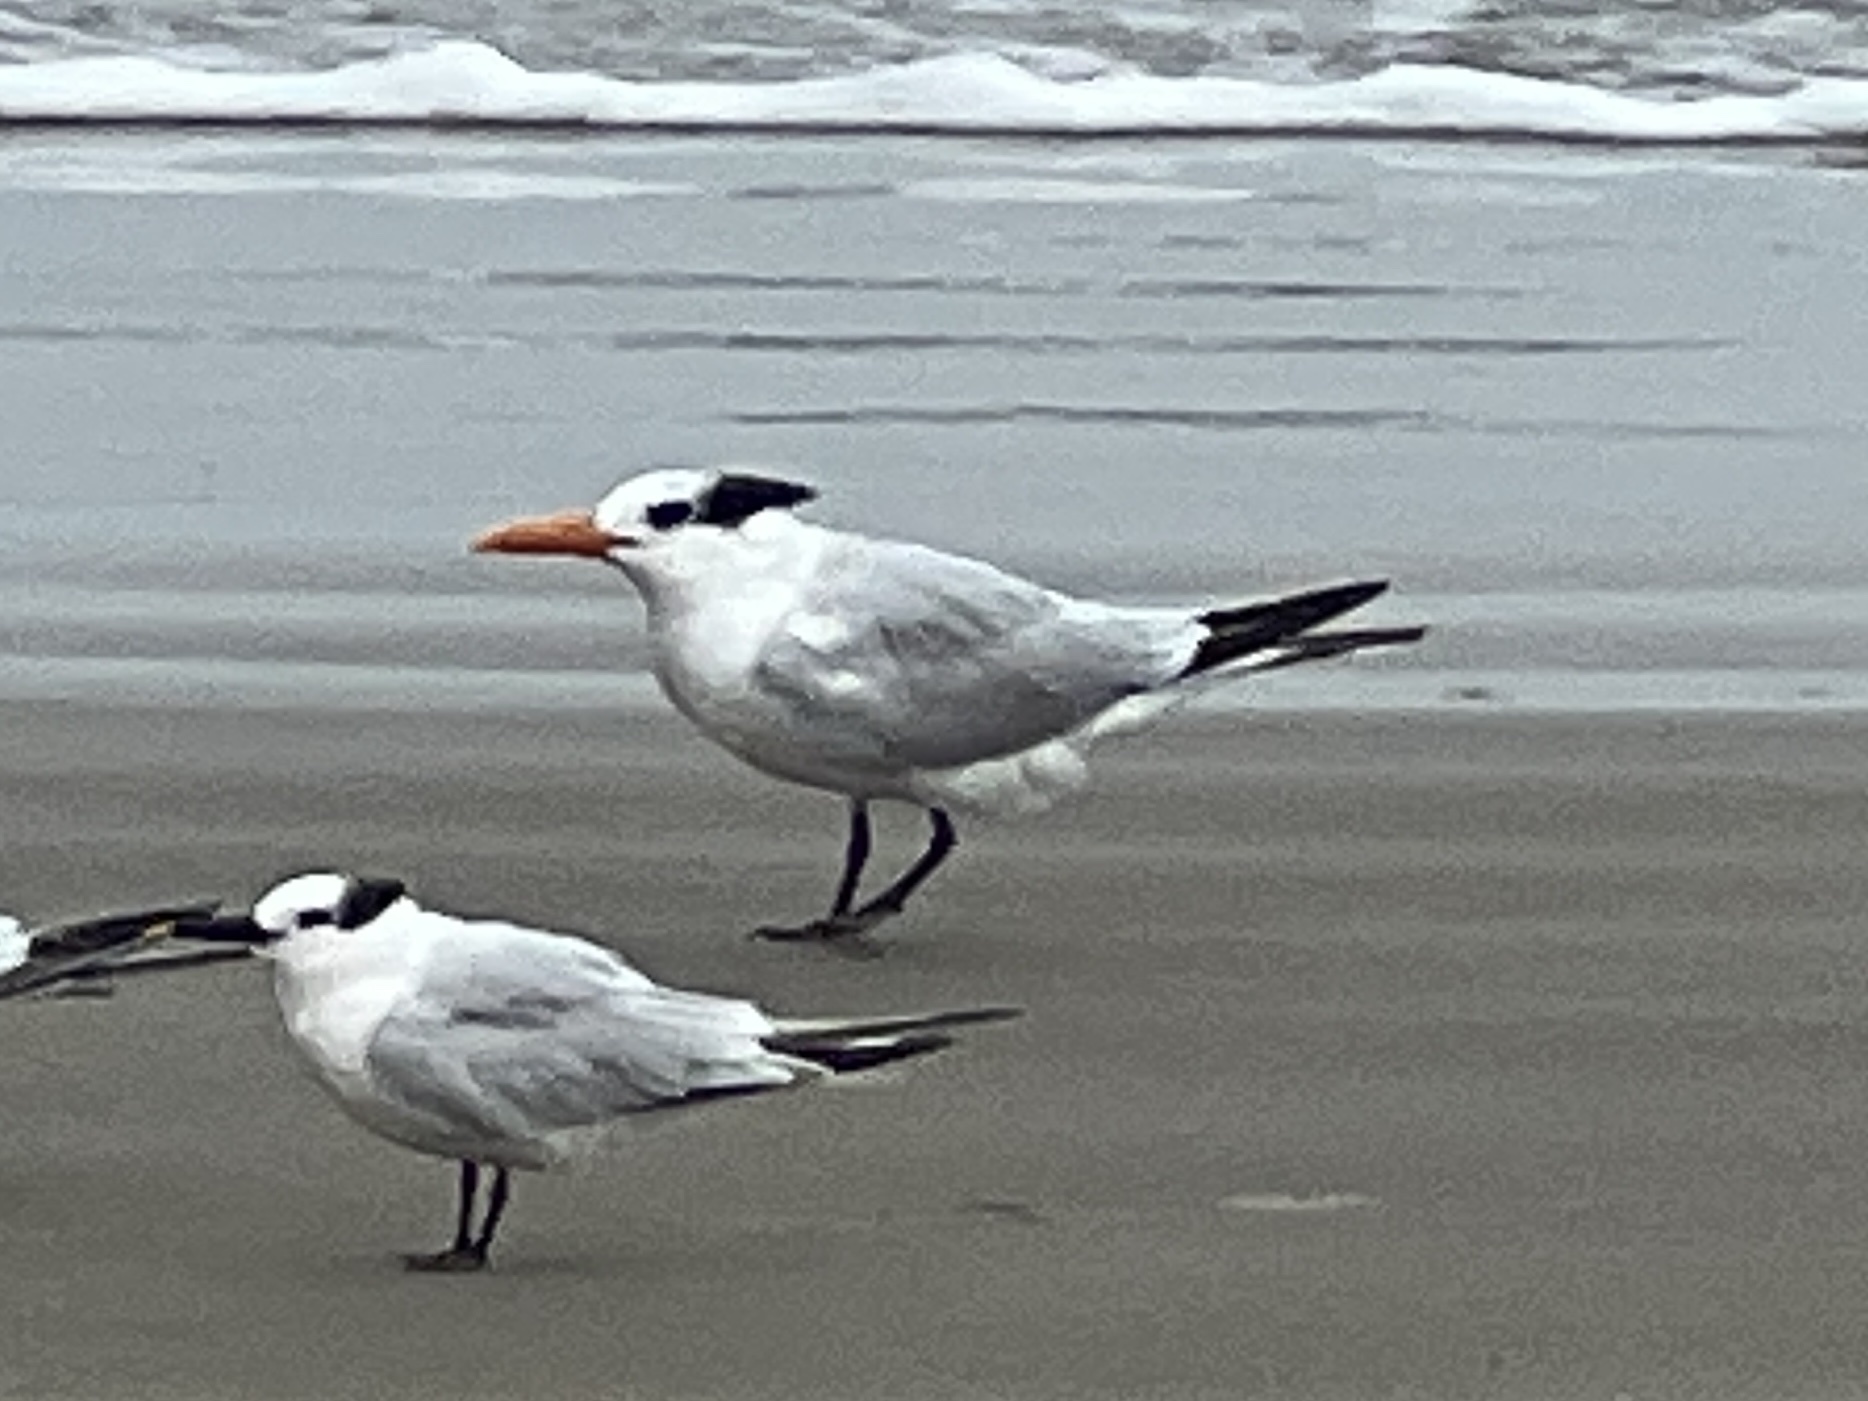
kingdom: Animalia
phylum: Chordata
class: Aves
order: Charadriiformes
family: Laridae
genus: Thalasseus
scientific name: Thalasseus maximus
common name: Royal tern
